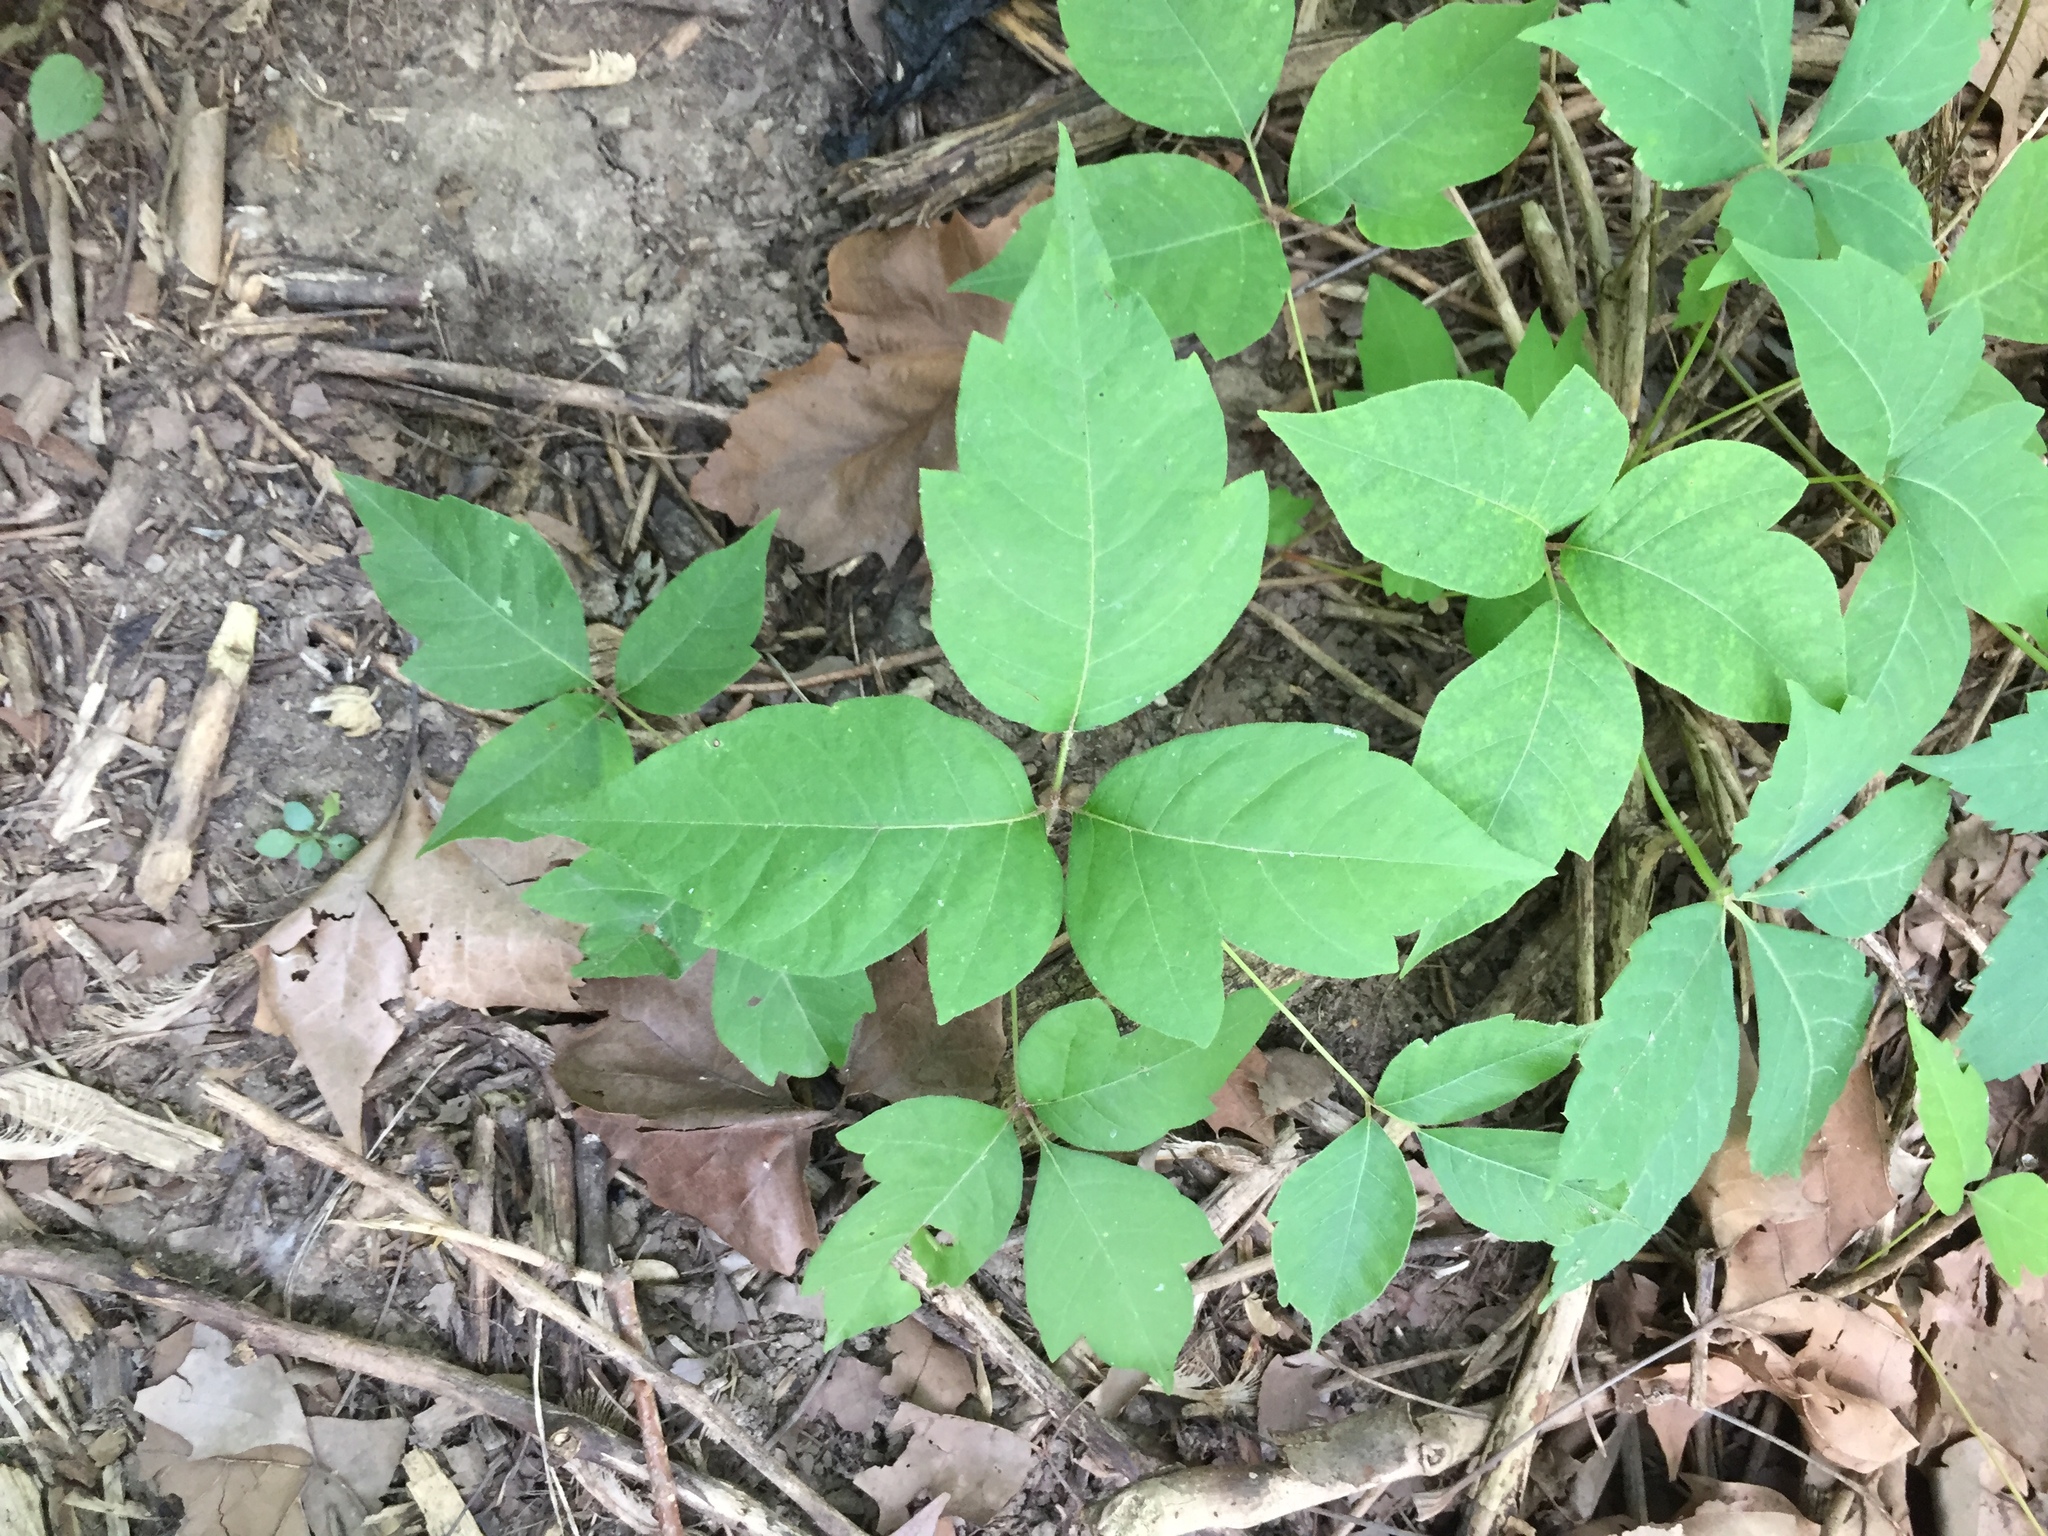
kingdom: Plantae
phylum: Tracheophyta
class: Magnoliopsida
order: Sapindales
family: Anacardiaceae
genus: Toxicodendron
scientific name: Toxicodendron radicans
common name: Poison ivy
